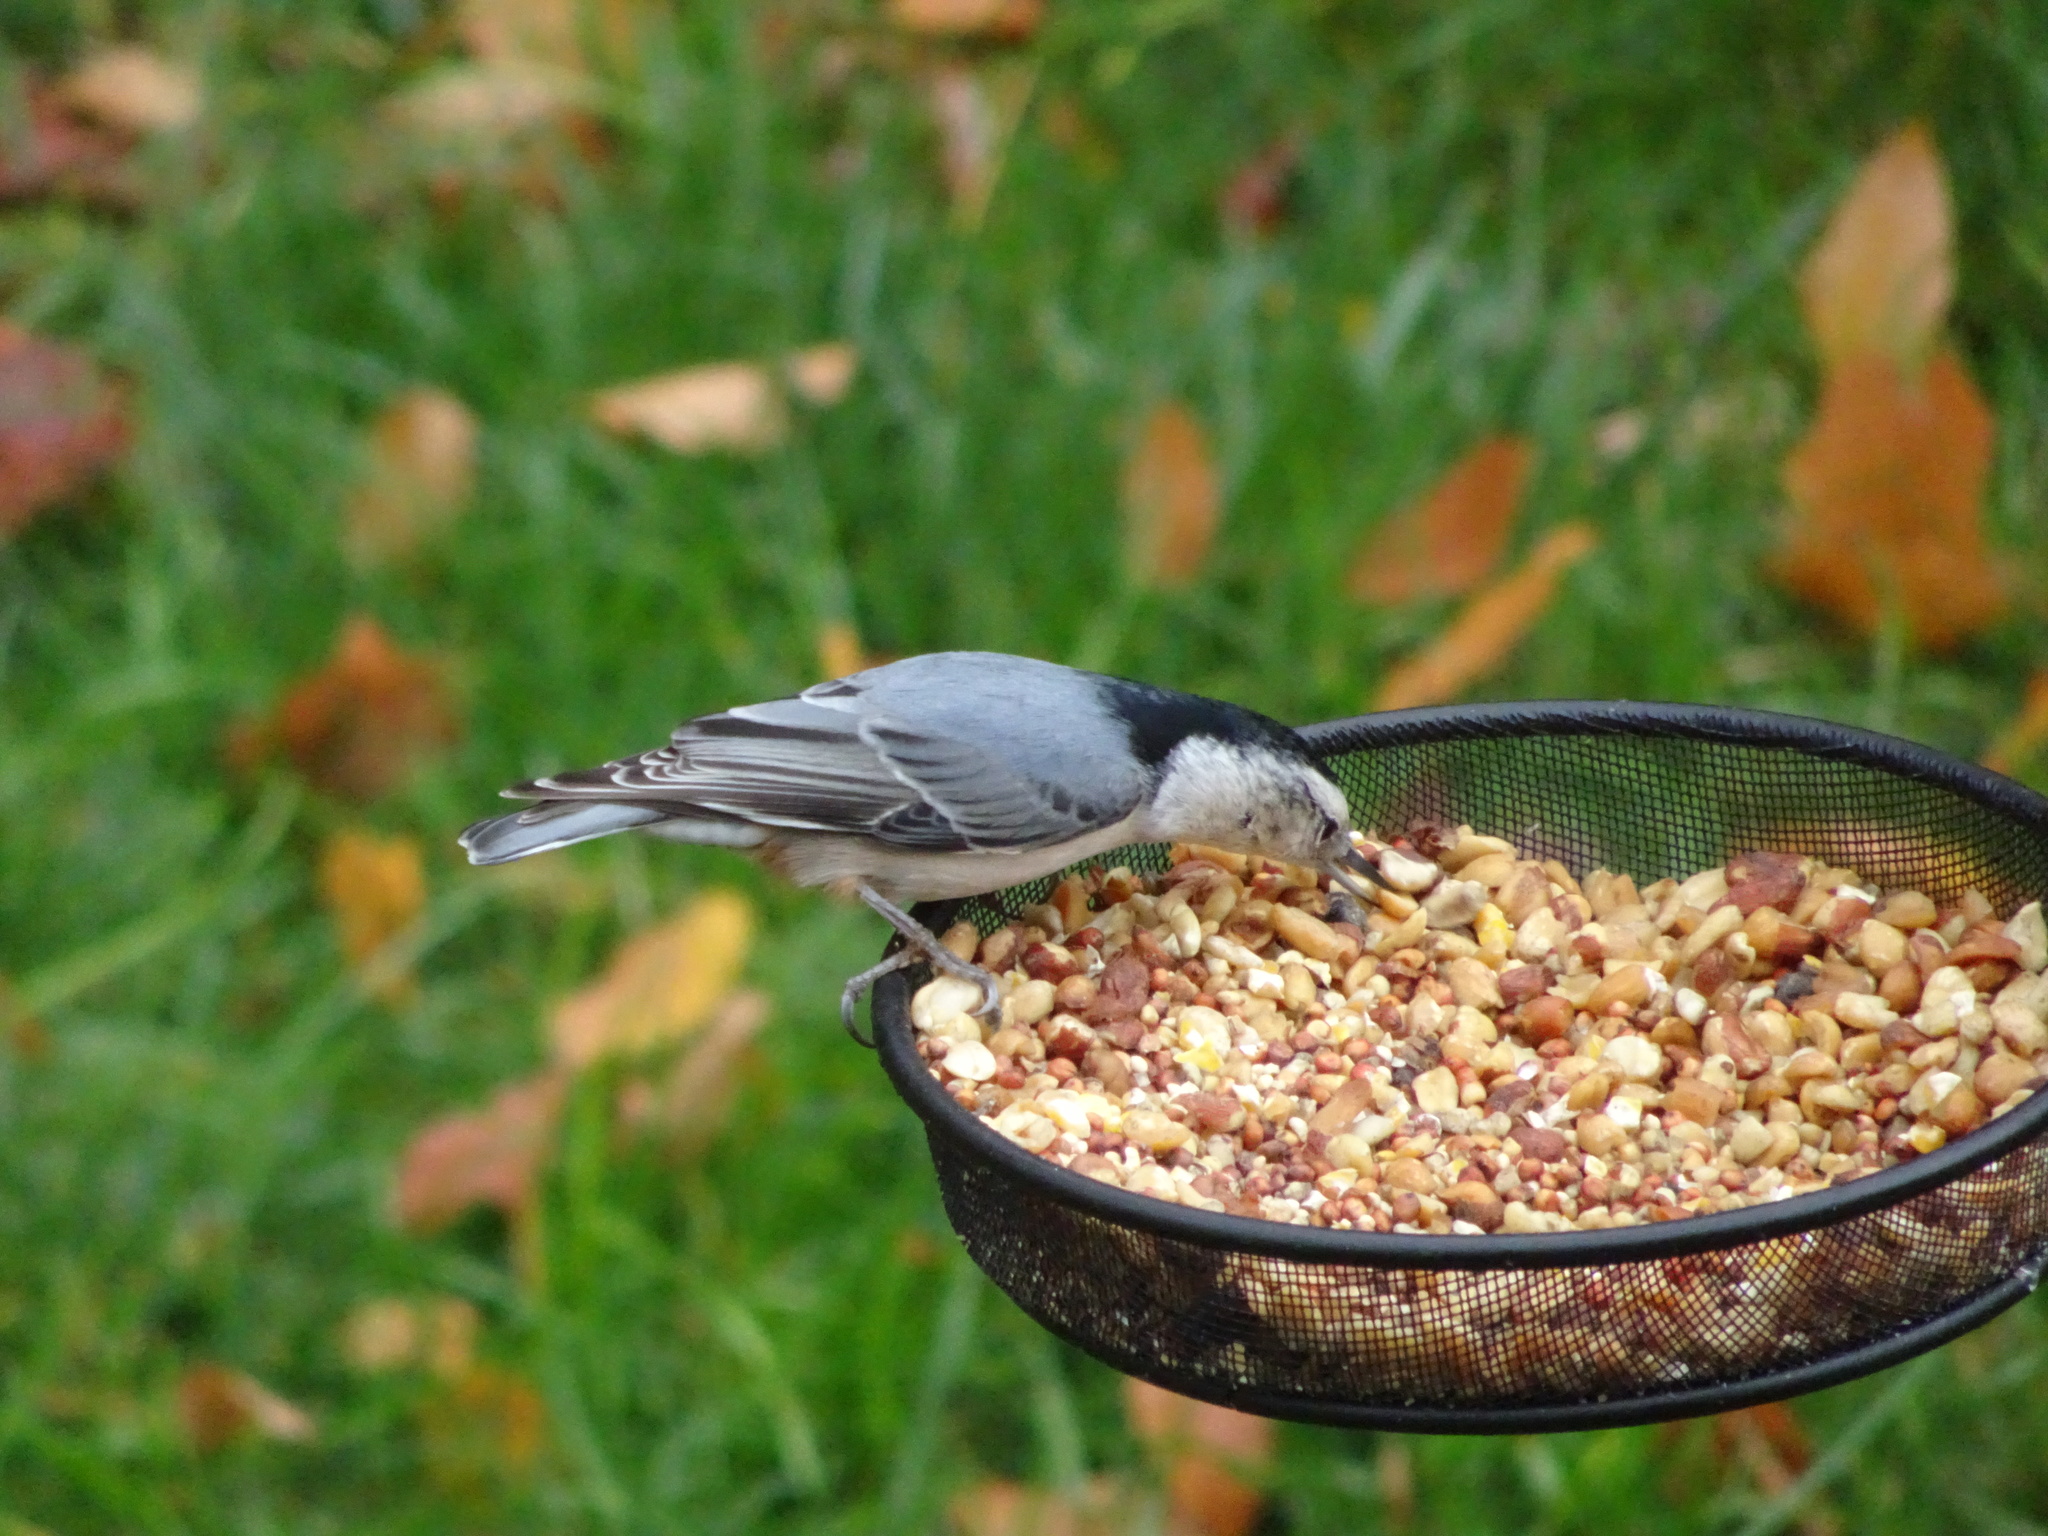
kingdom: Animalia
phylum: Chordata
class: Aves
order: Passeriformes
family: Sittidae
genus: Sitta
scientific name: Sitta carolinensis
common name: White-breasted nuthatch
